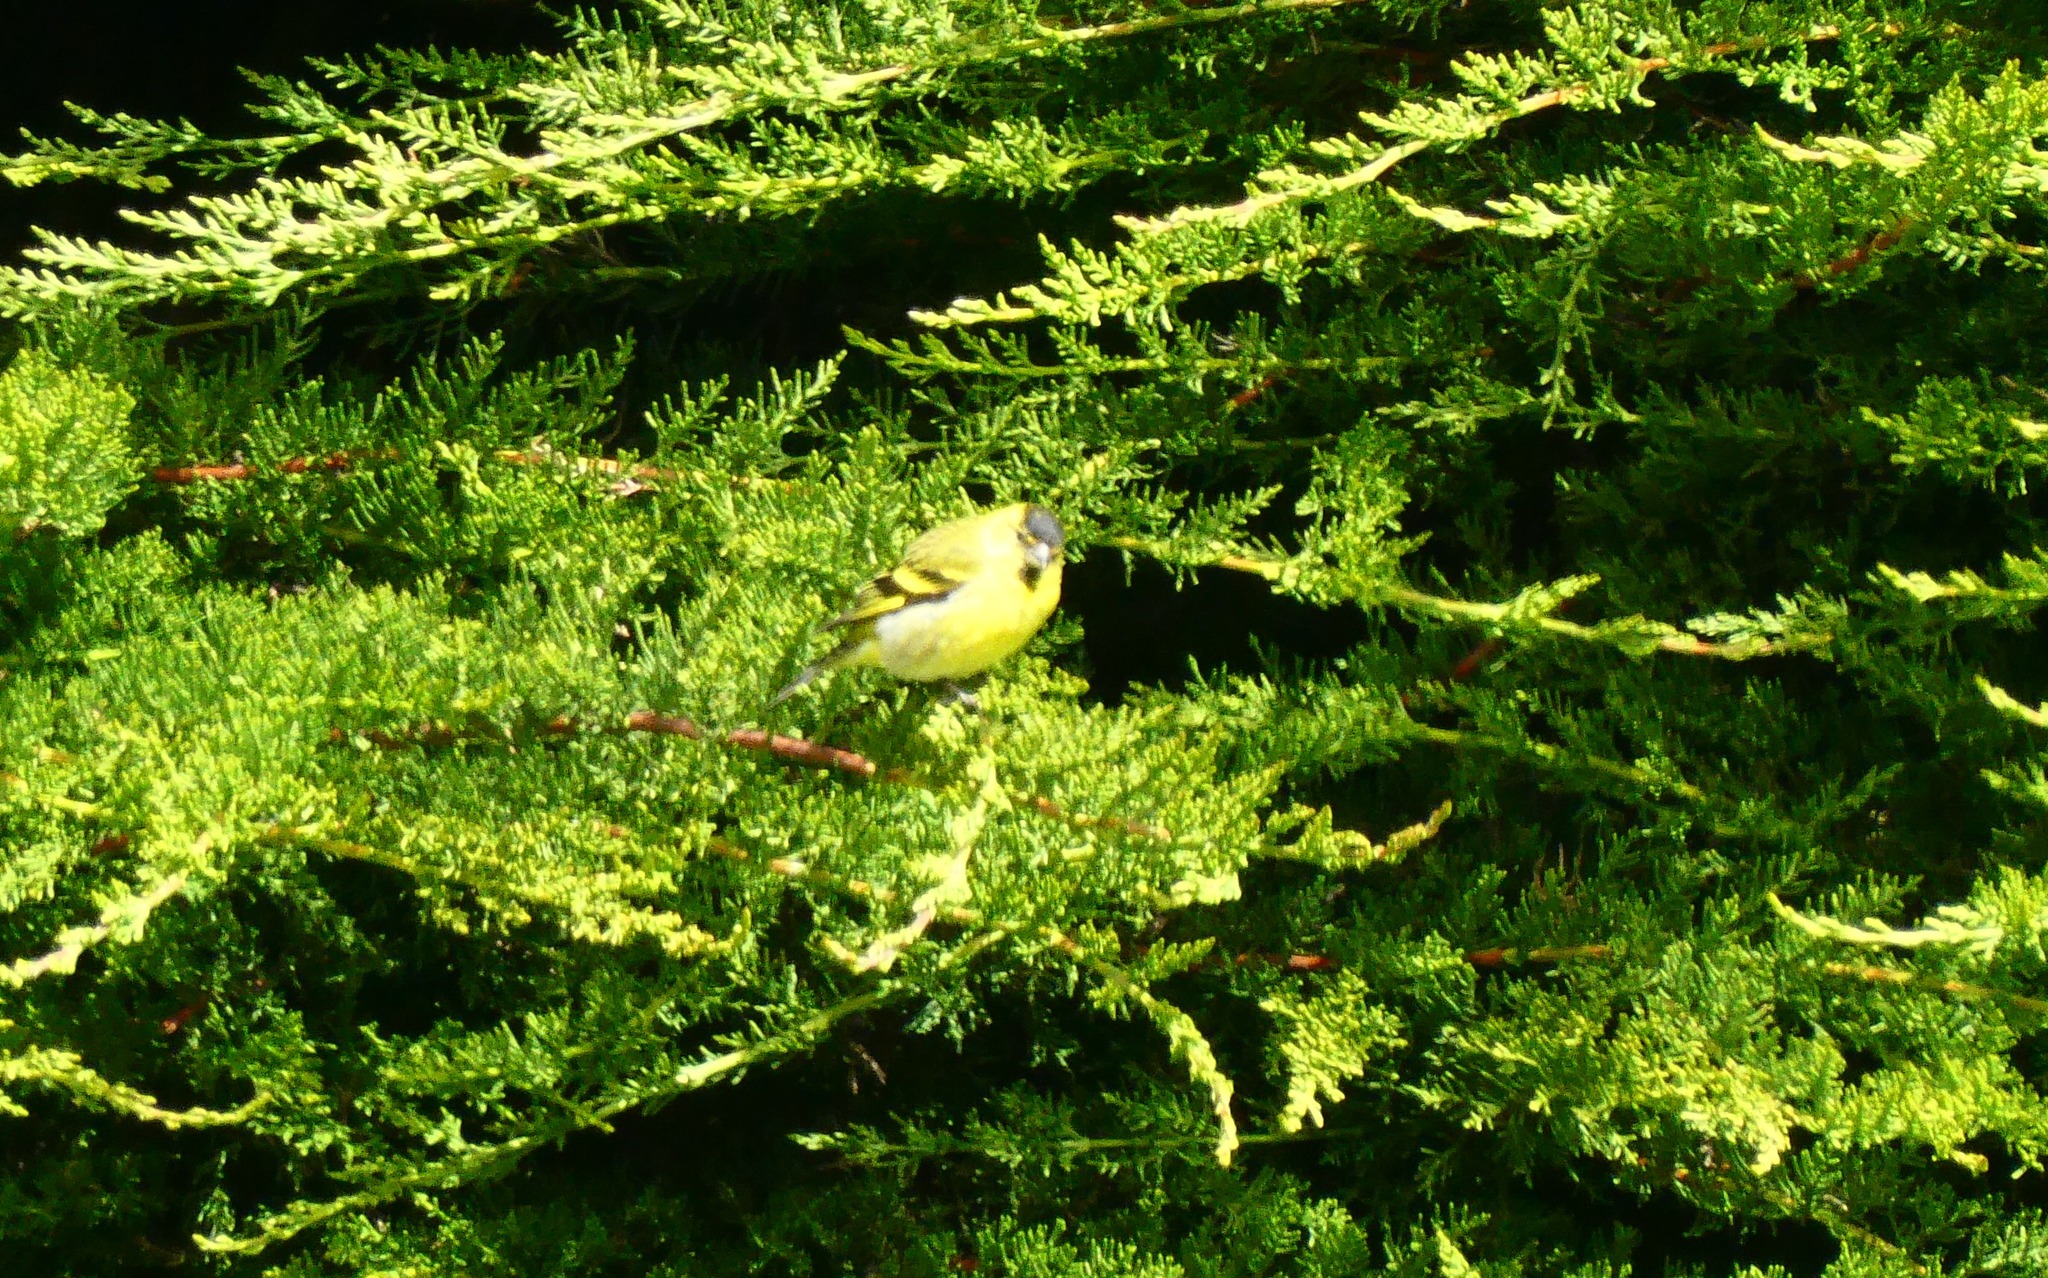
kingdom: Animalia
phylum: Chordata
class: Aves
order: Passeriformes
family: Fringillidae
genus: Spinus
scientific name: Spinus barbatus
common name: Black-chinned siskin
